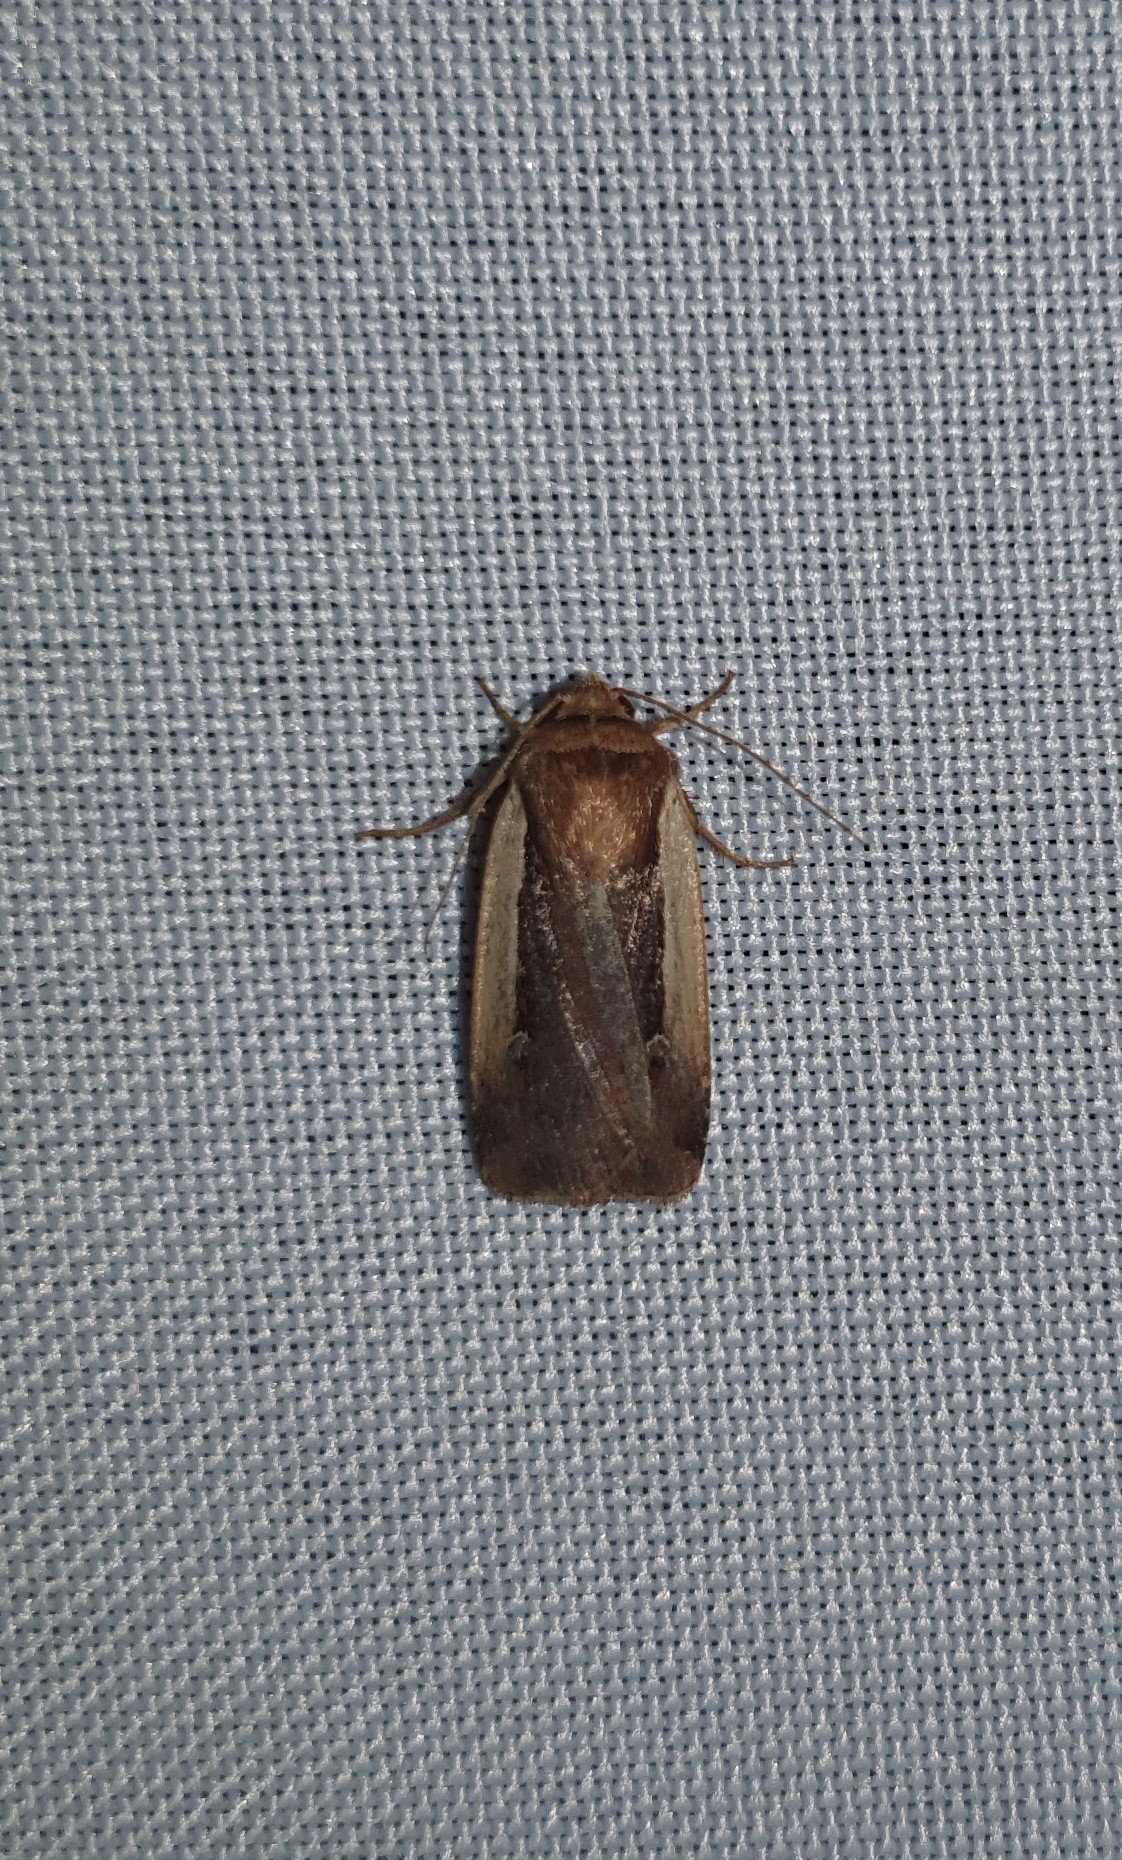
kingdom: Animalia
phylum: Arthropoda
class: Insecta
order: Lepidoptera
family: Noctuidae
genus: Ochropleura
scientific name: Ochropleura plecta
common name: Flame shoulder
